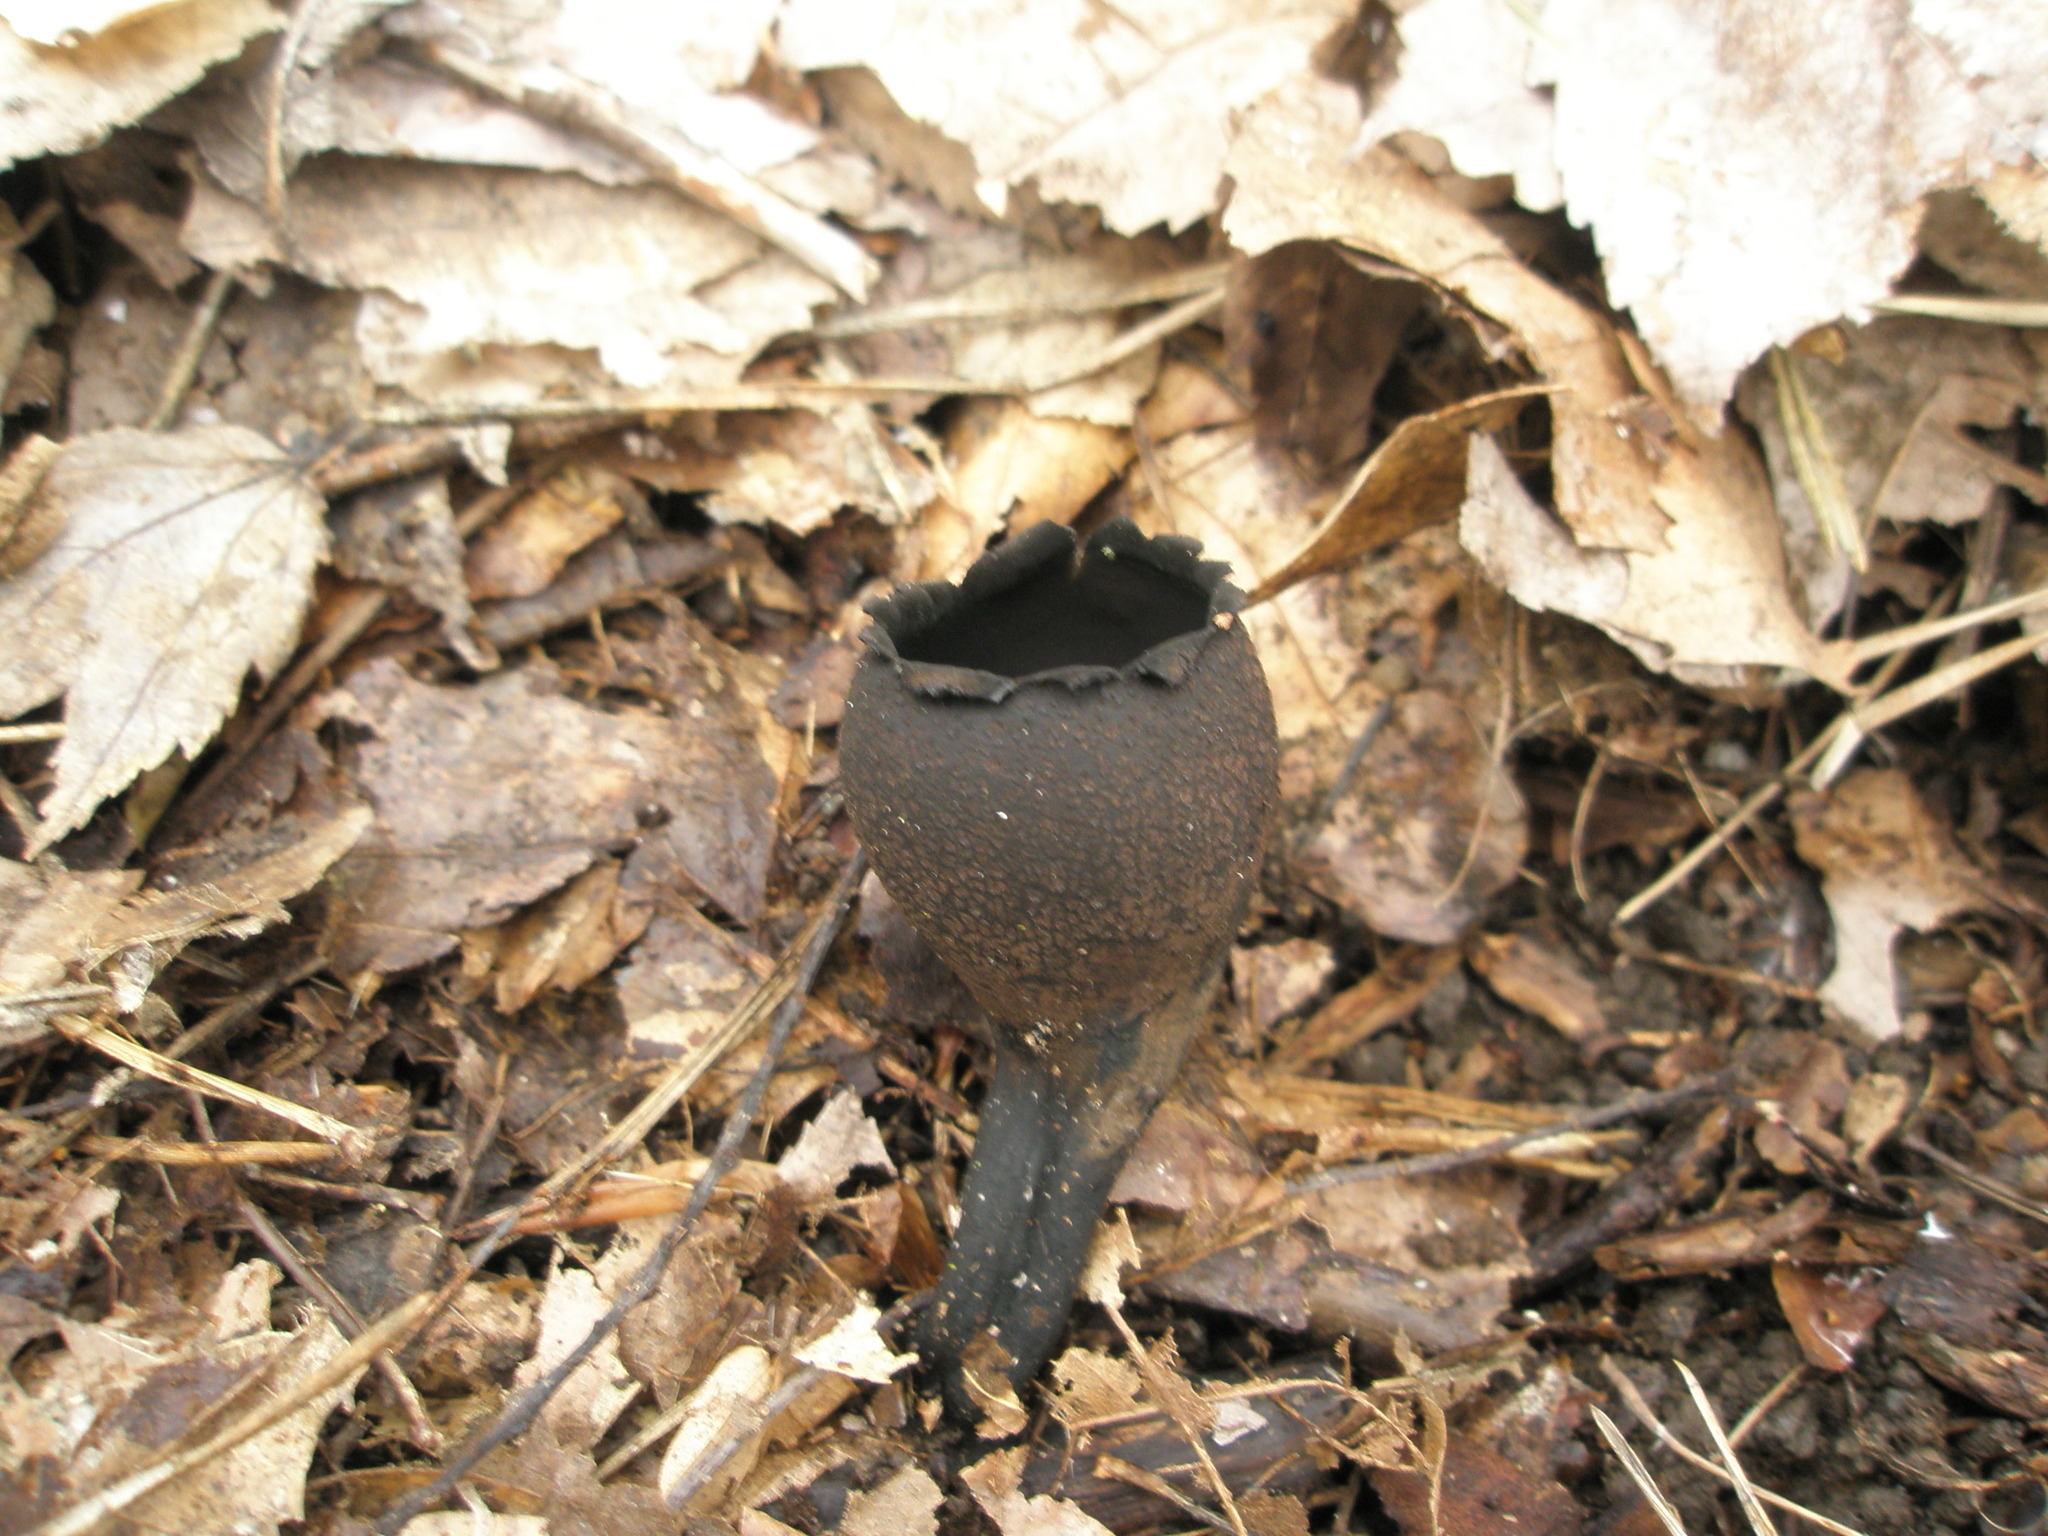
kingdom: Fungi
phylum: Ascomycota
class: Pezizomycetes
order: Pezizales
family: Sarcosomataceae
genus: Urnula
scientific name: Urnula craterium
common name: Devil's urn
